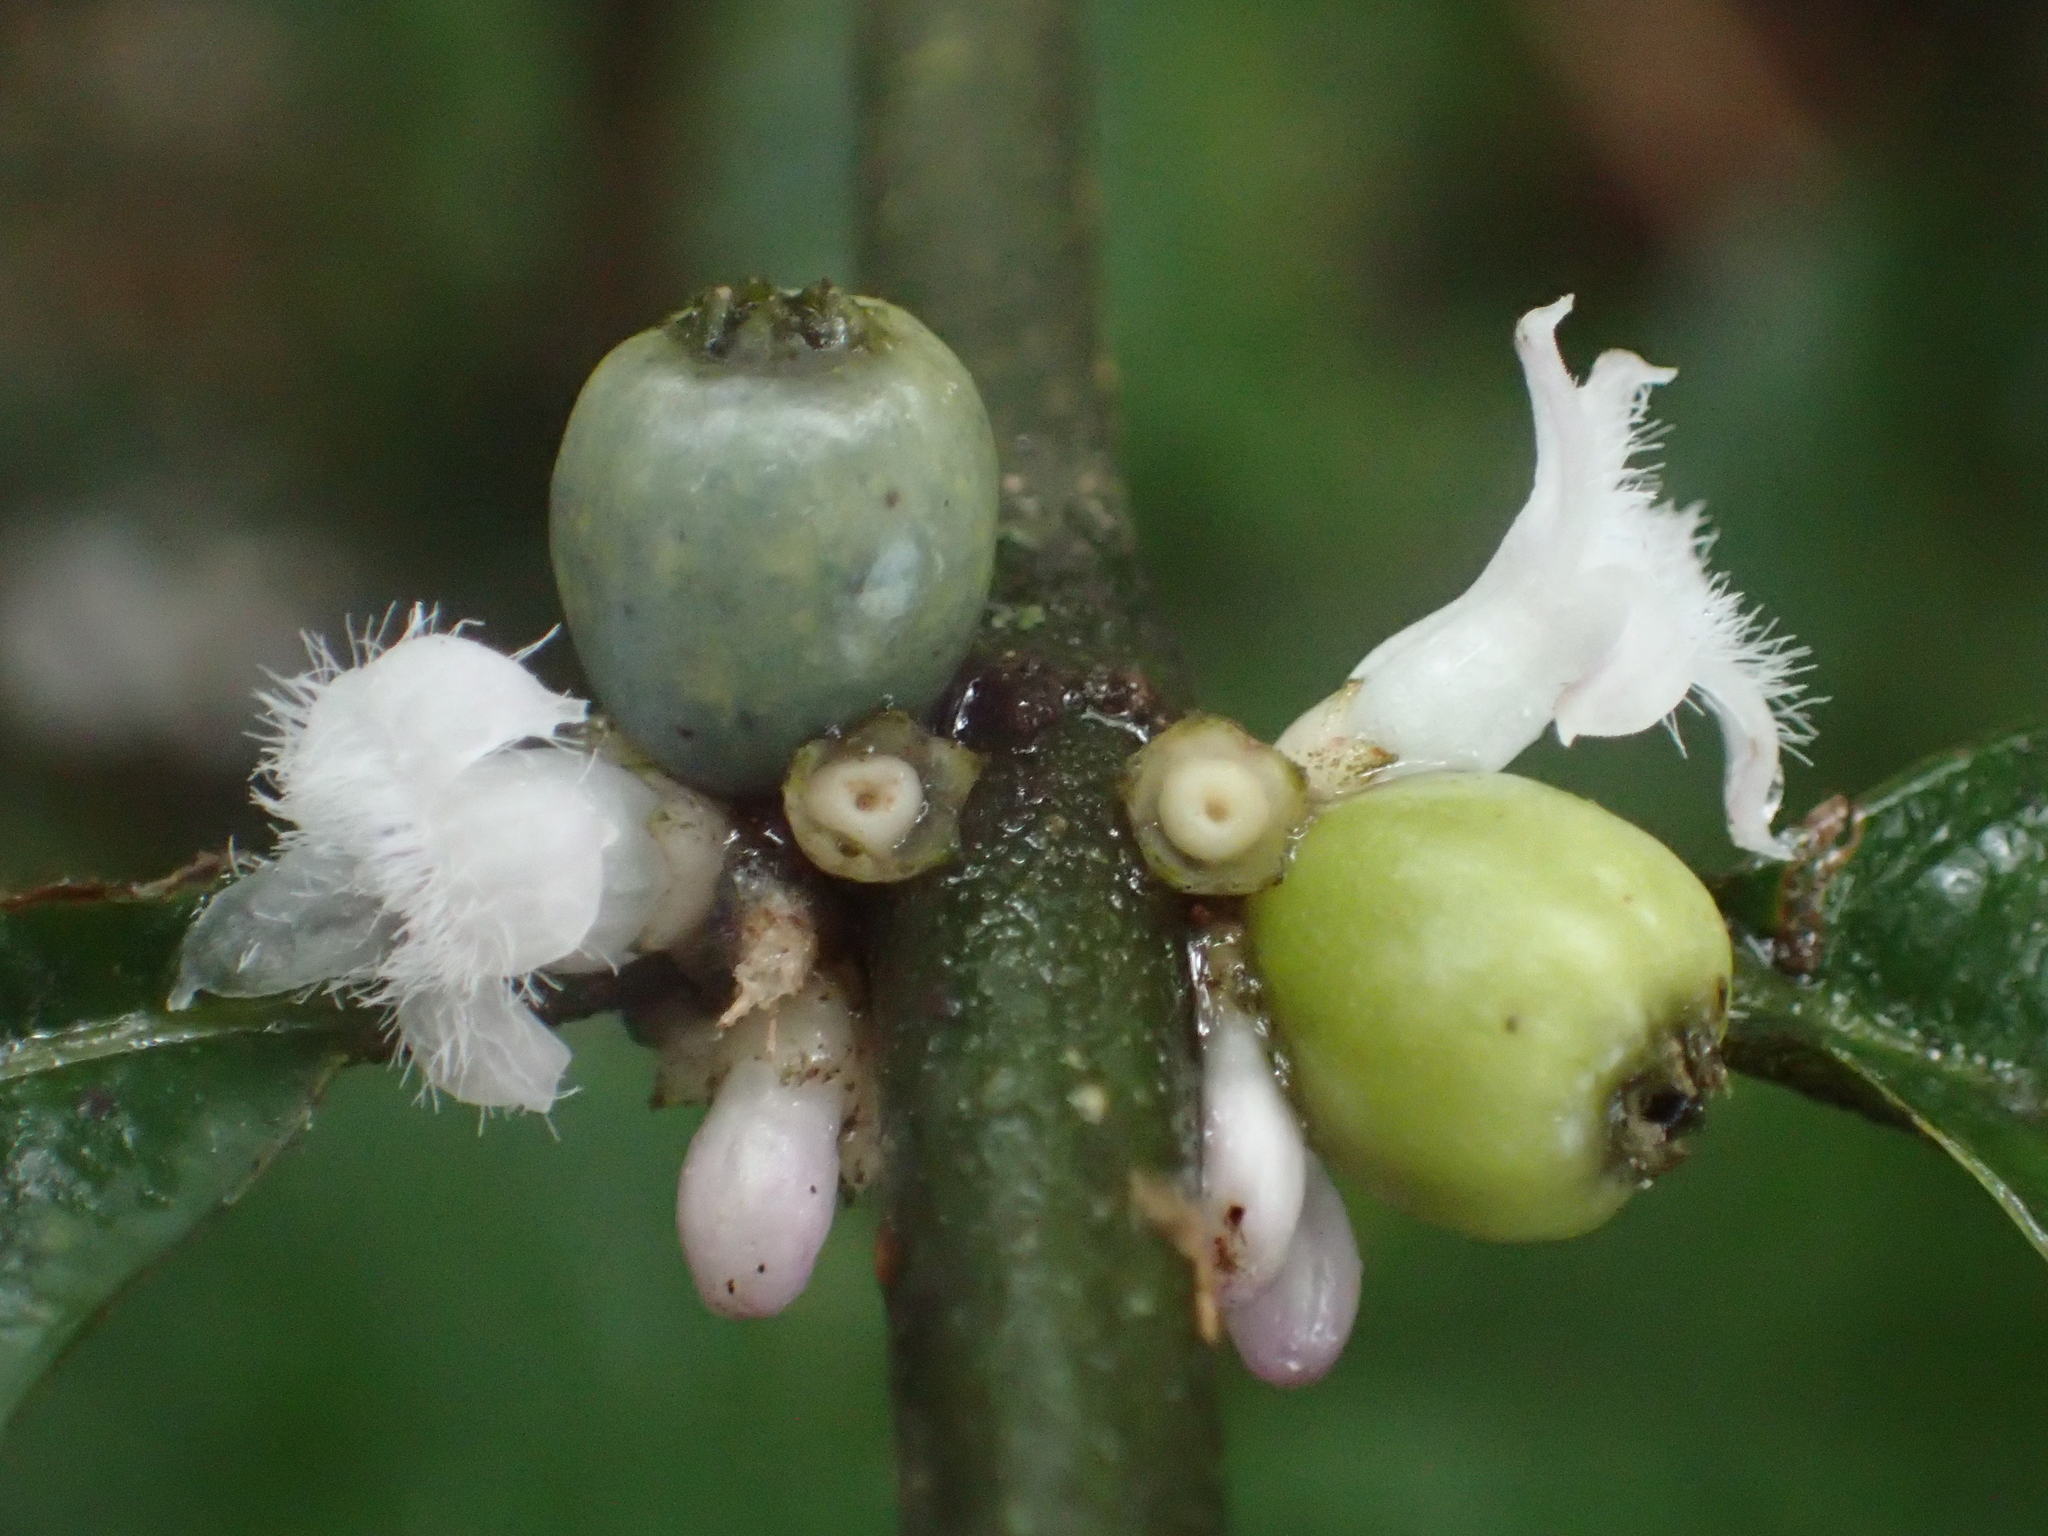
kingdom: Plantae
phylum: Tracheophyta
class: Magnoliopsida
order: Gentianales
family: Rubiaceae
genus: Lasianthus
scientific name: Lasianthus fordii
